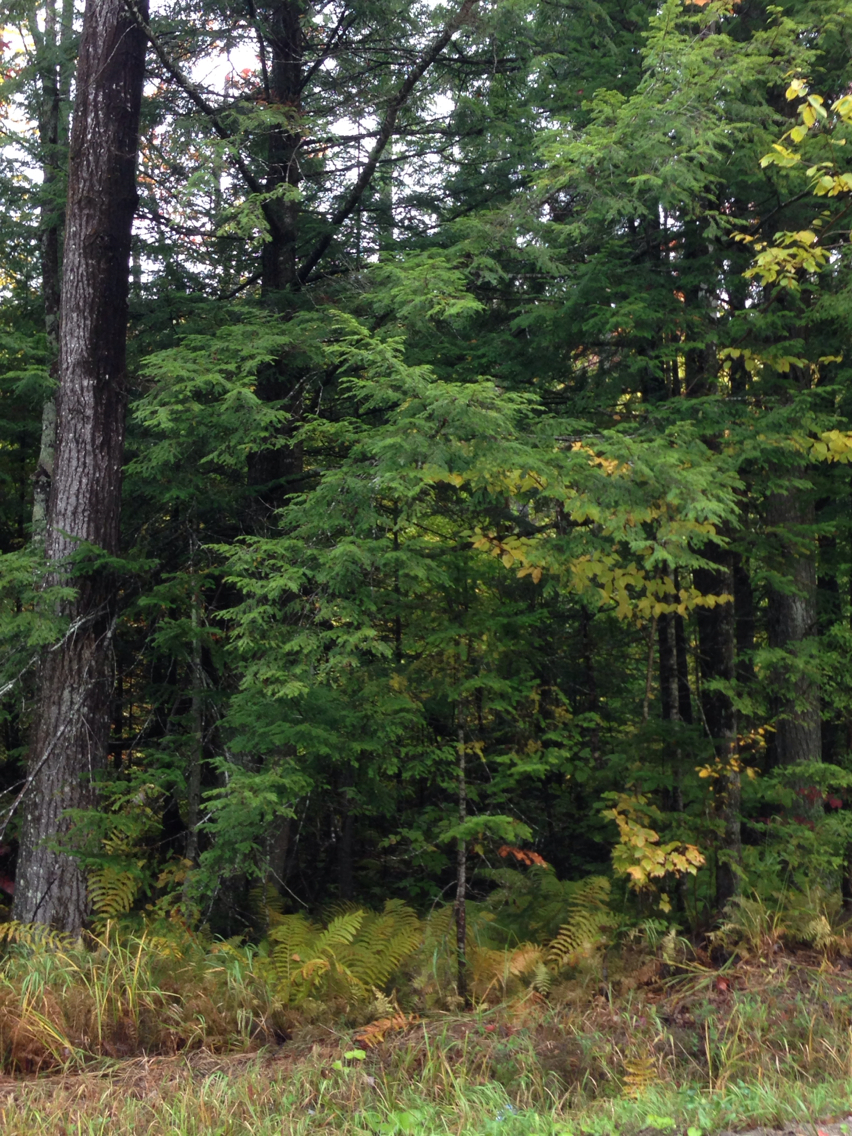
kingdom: Plantae
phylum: Tracheophyta
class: Pinopsida
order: Pinales
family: Pinaceae
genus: Tsuga
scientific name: Tsuga canadensis
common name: Eastern hemlock
